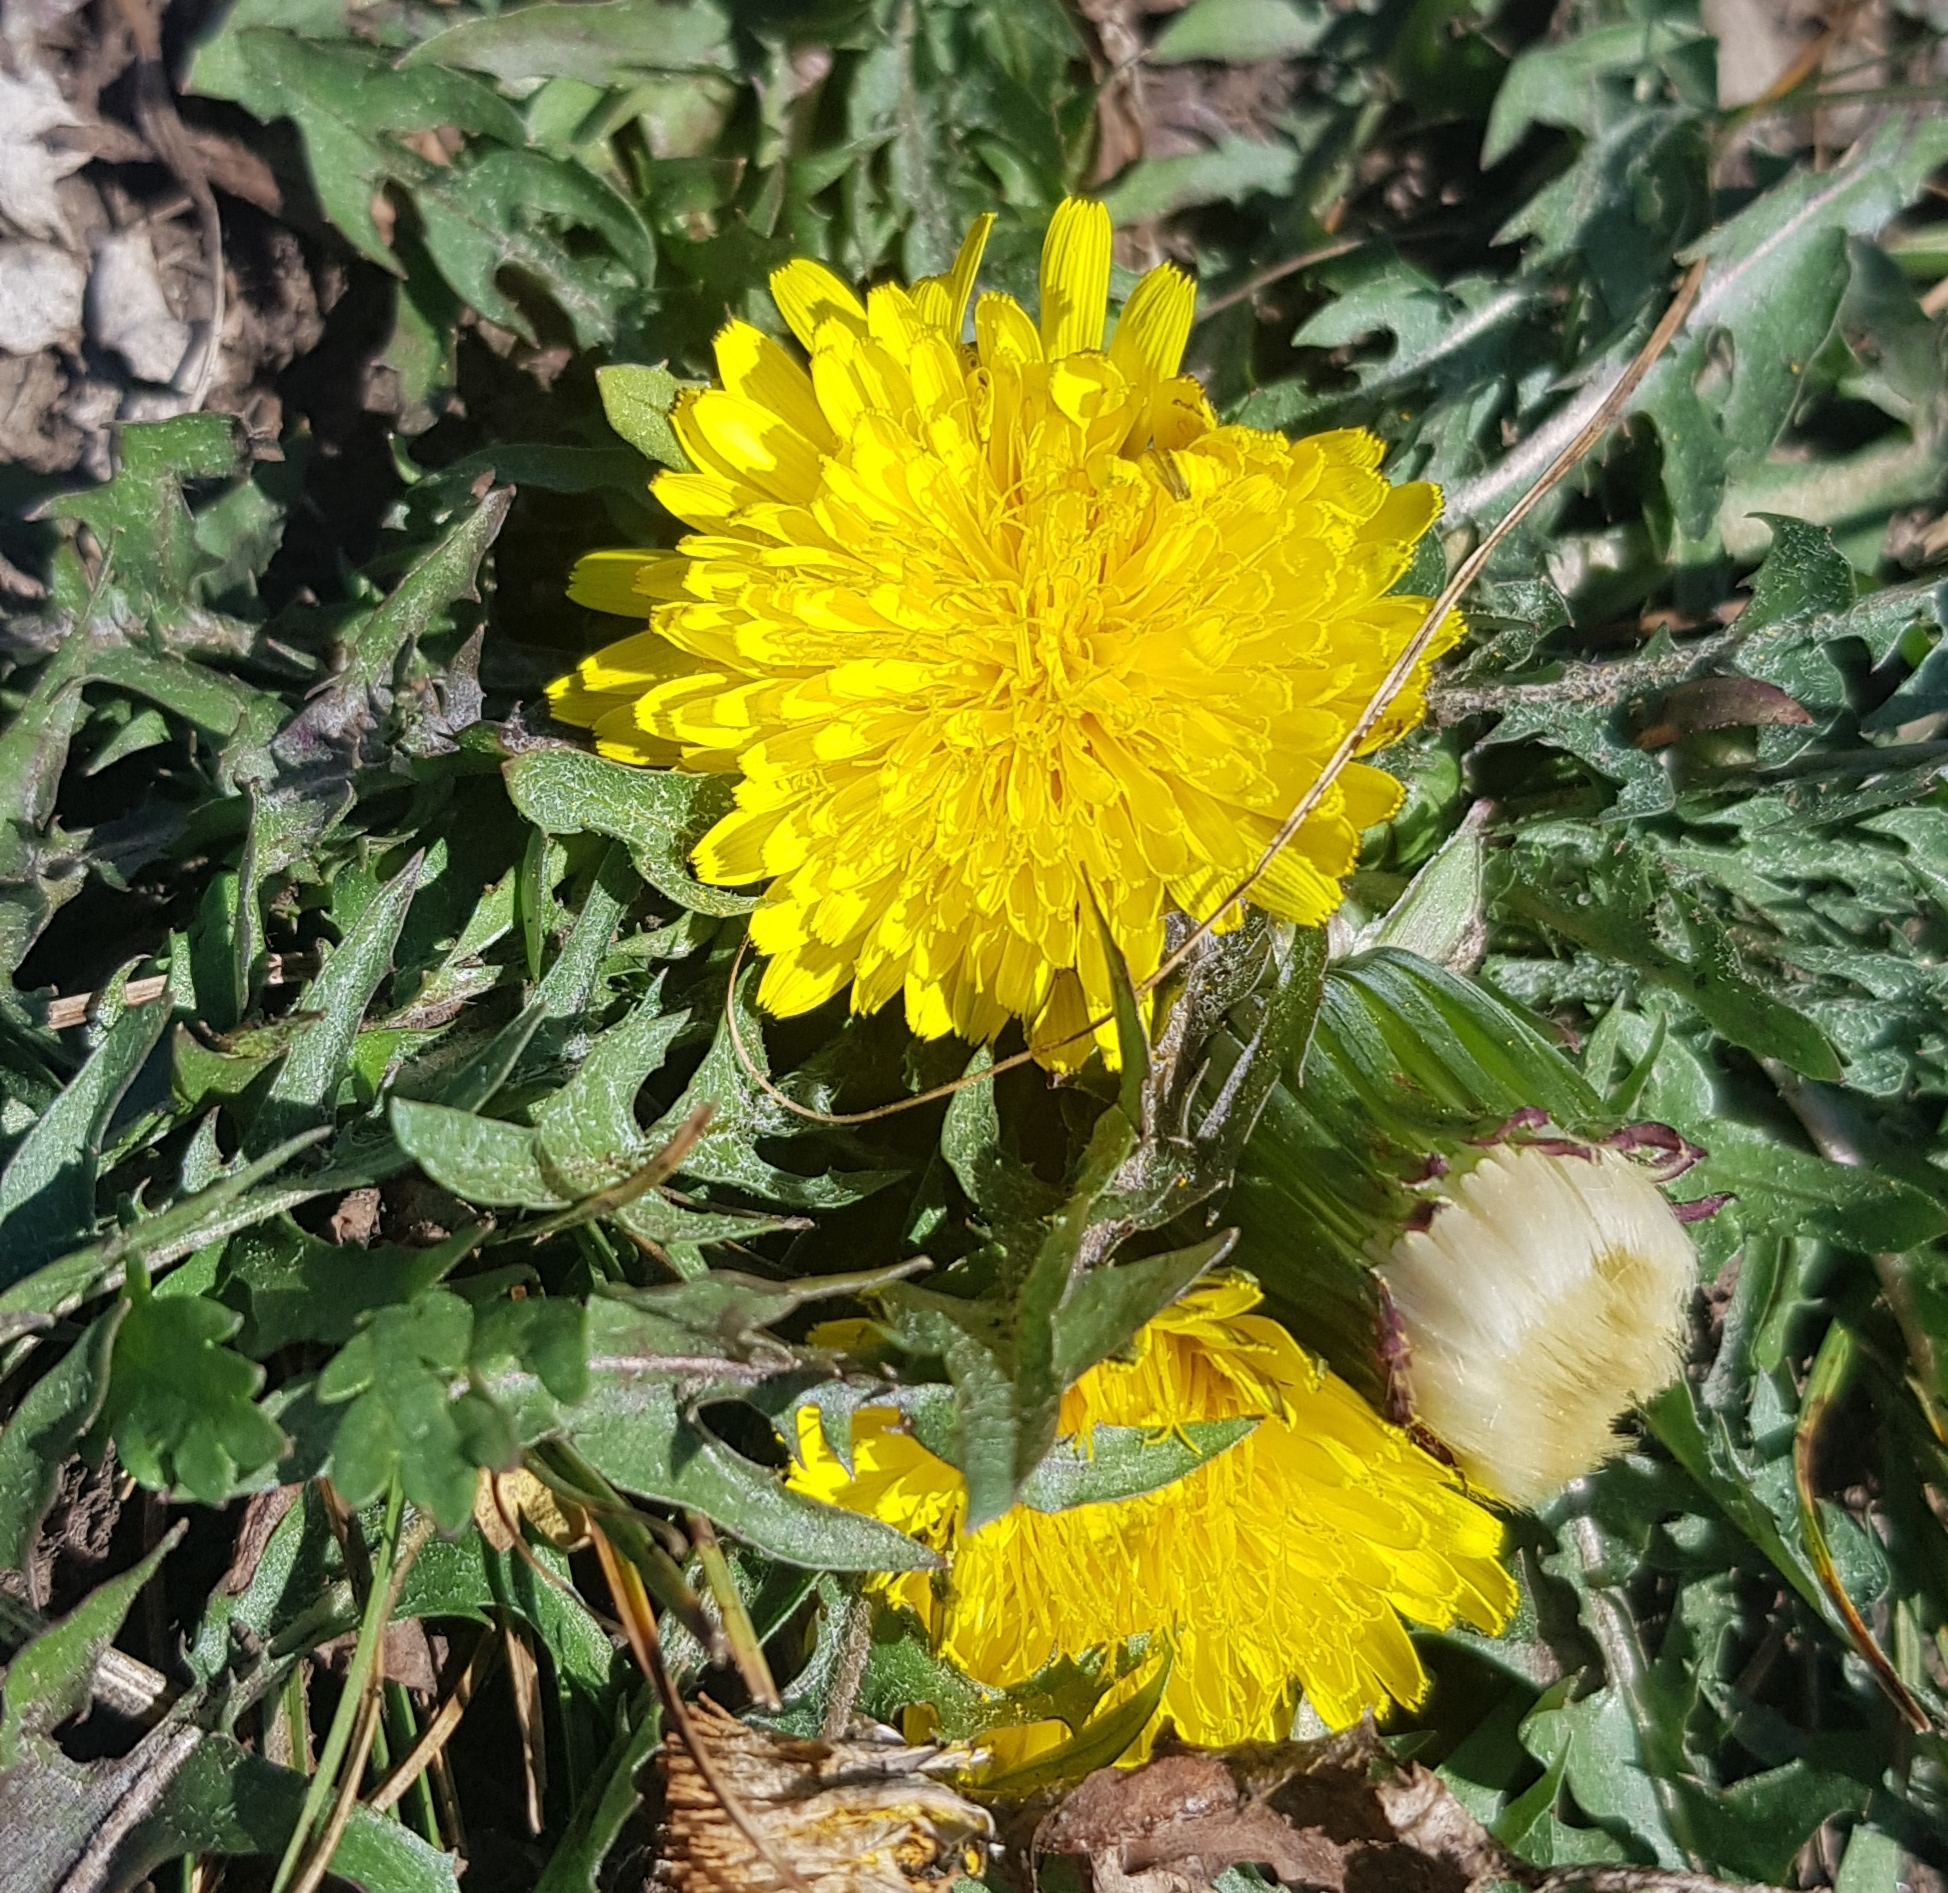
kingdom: Plantae
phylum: Tracheophyta
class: Magnoliopsida
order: Asterales
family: Asteraceae
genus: Taraxacum
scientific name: Taraxacum dissectum
